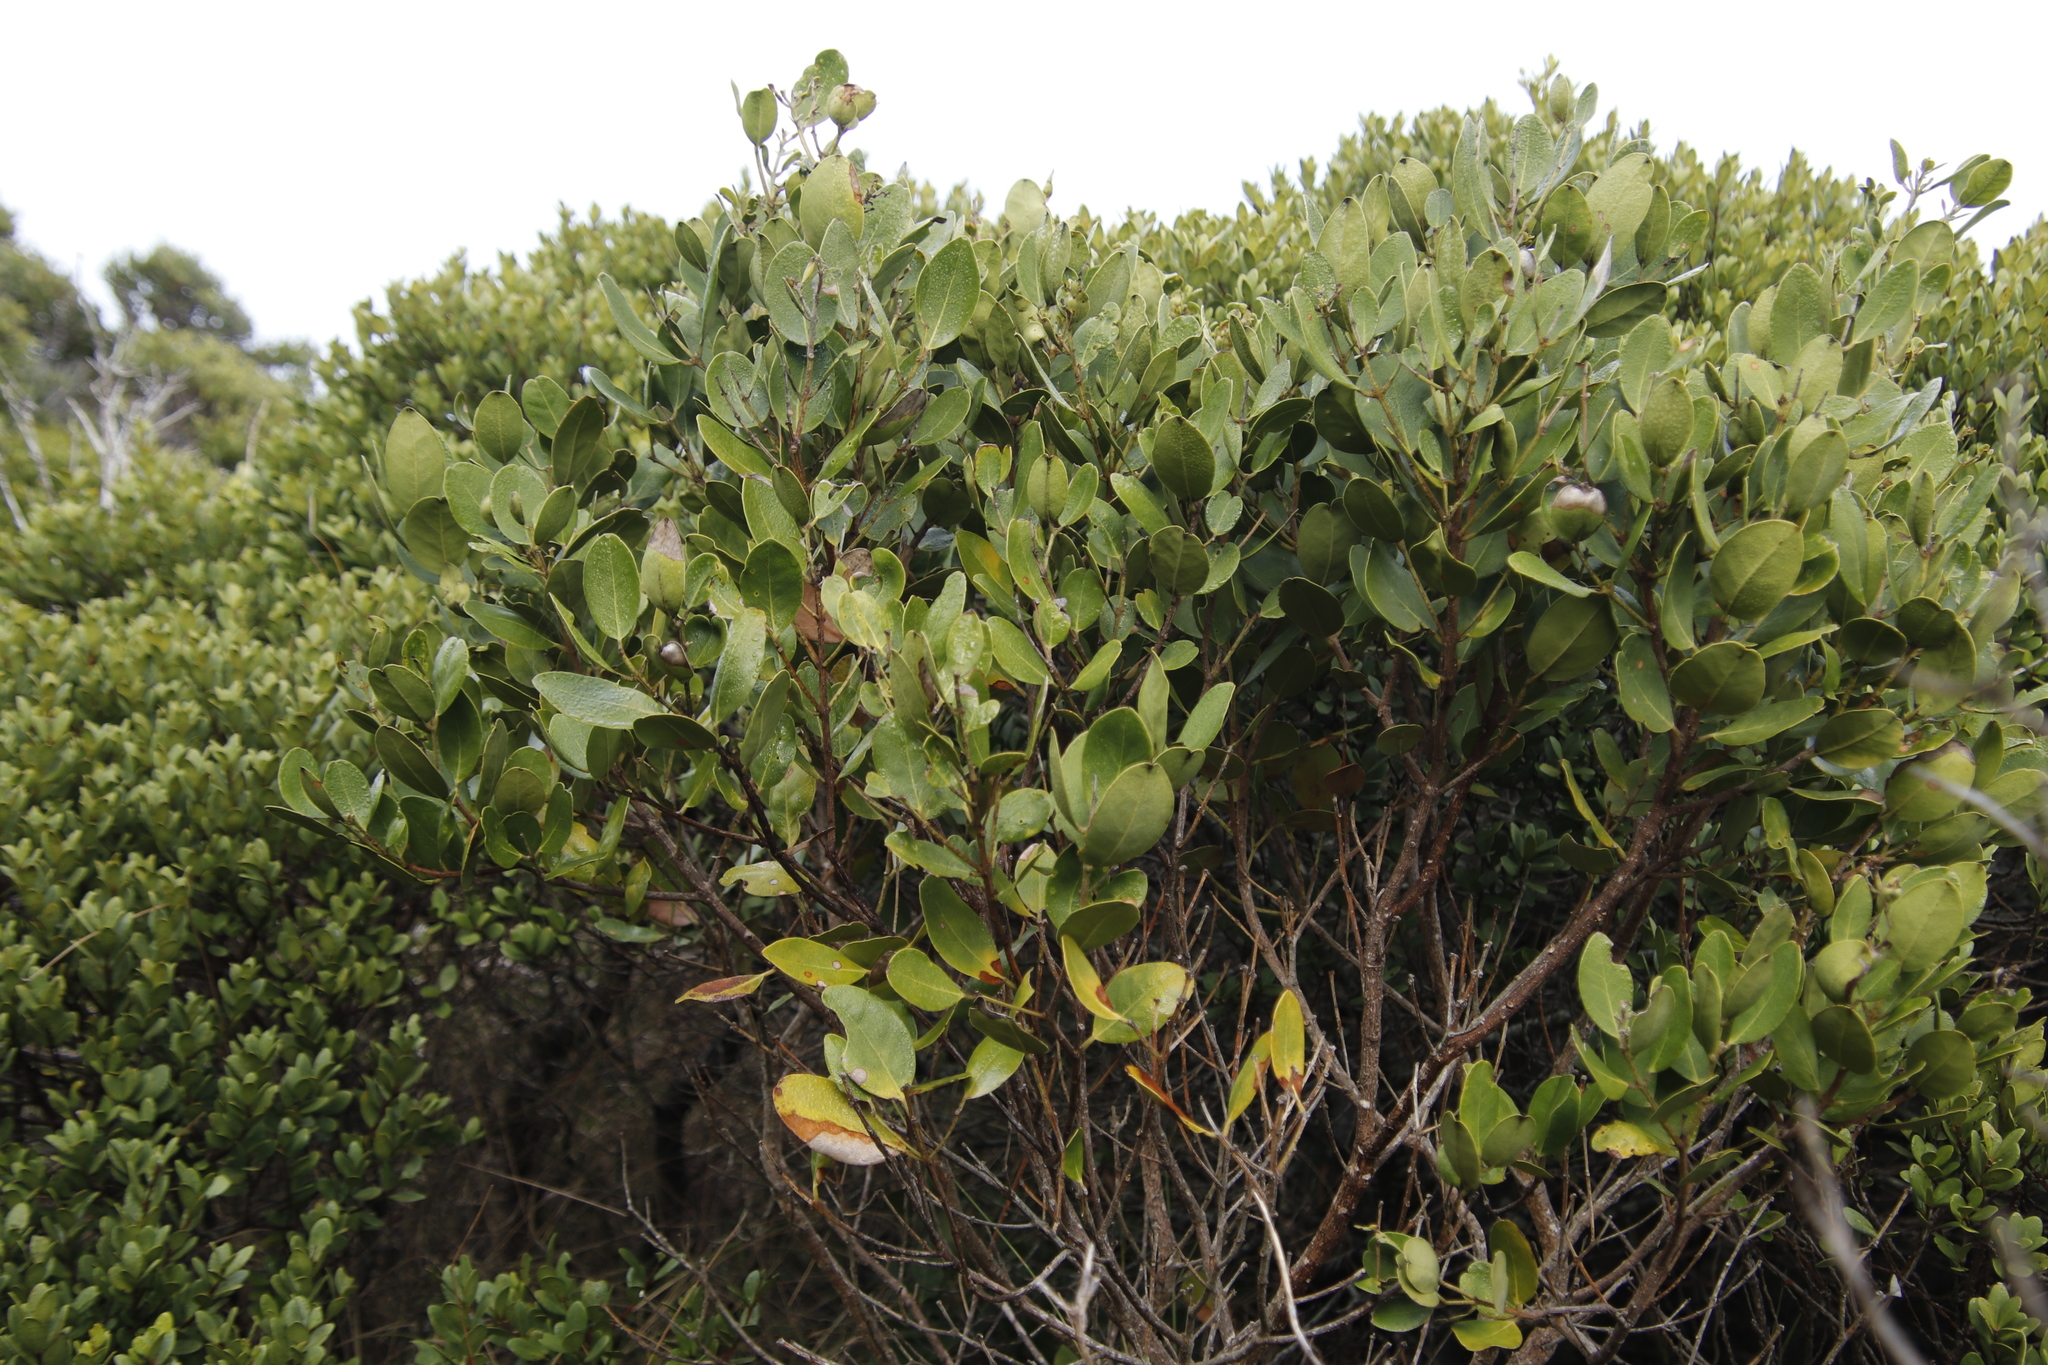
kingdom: Plantae
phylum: Tracheophyta
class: Magnoliopsida
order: Celastrales
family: Celastraceae
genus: Gymnosporia
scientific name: Gymnosporia laurina
